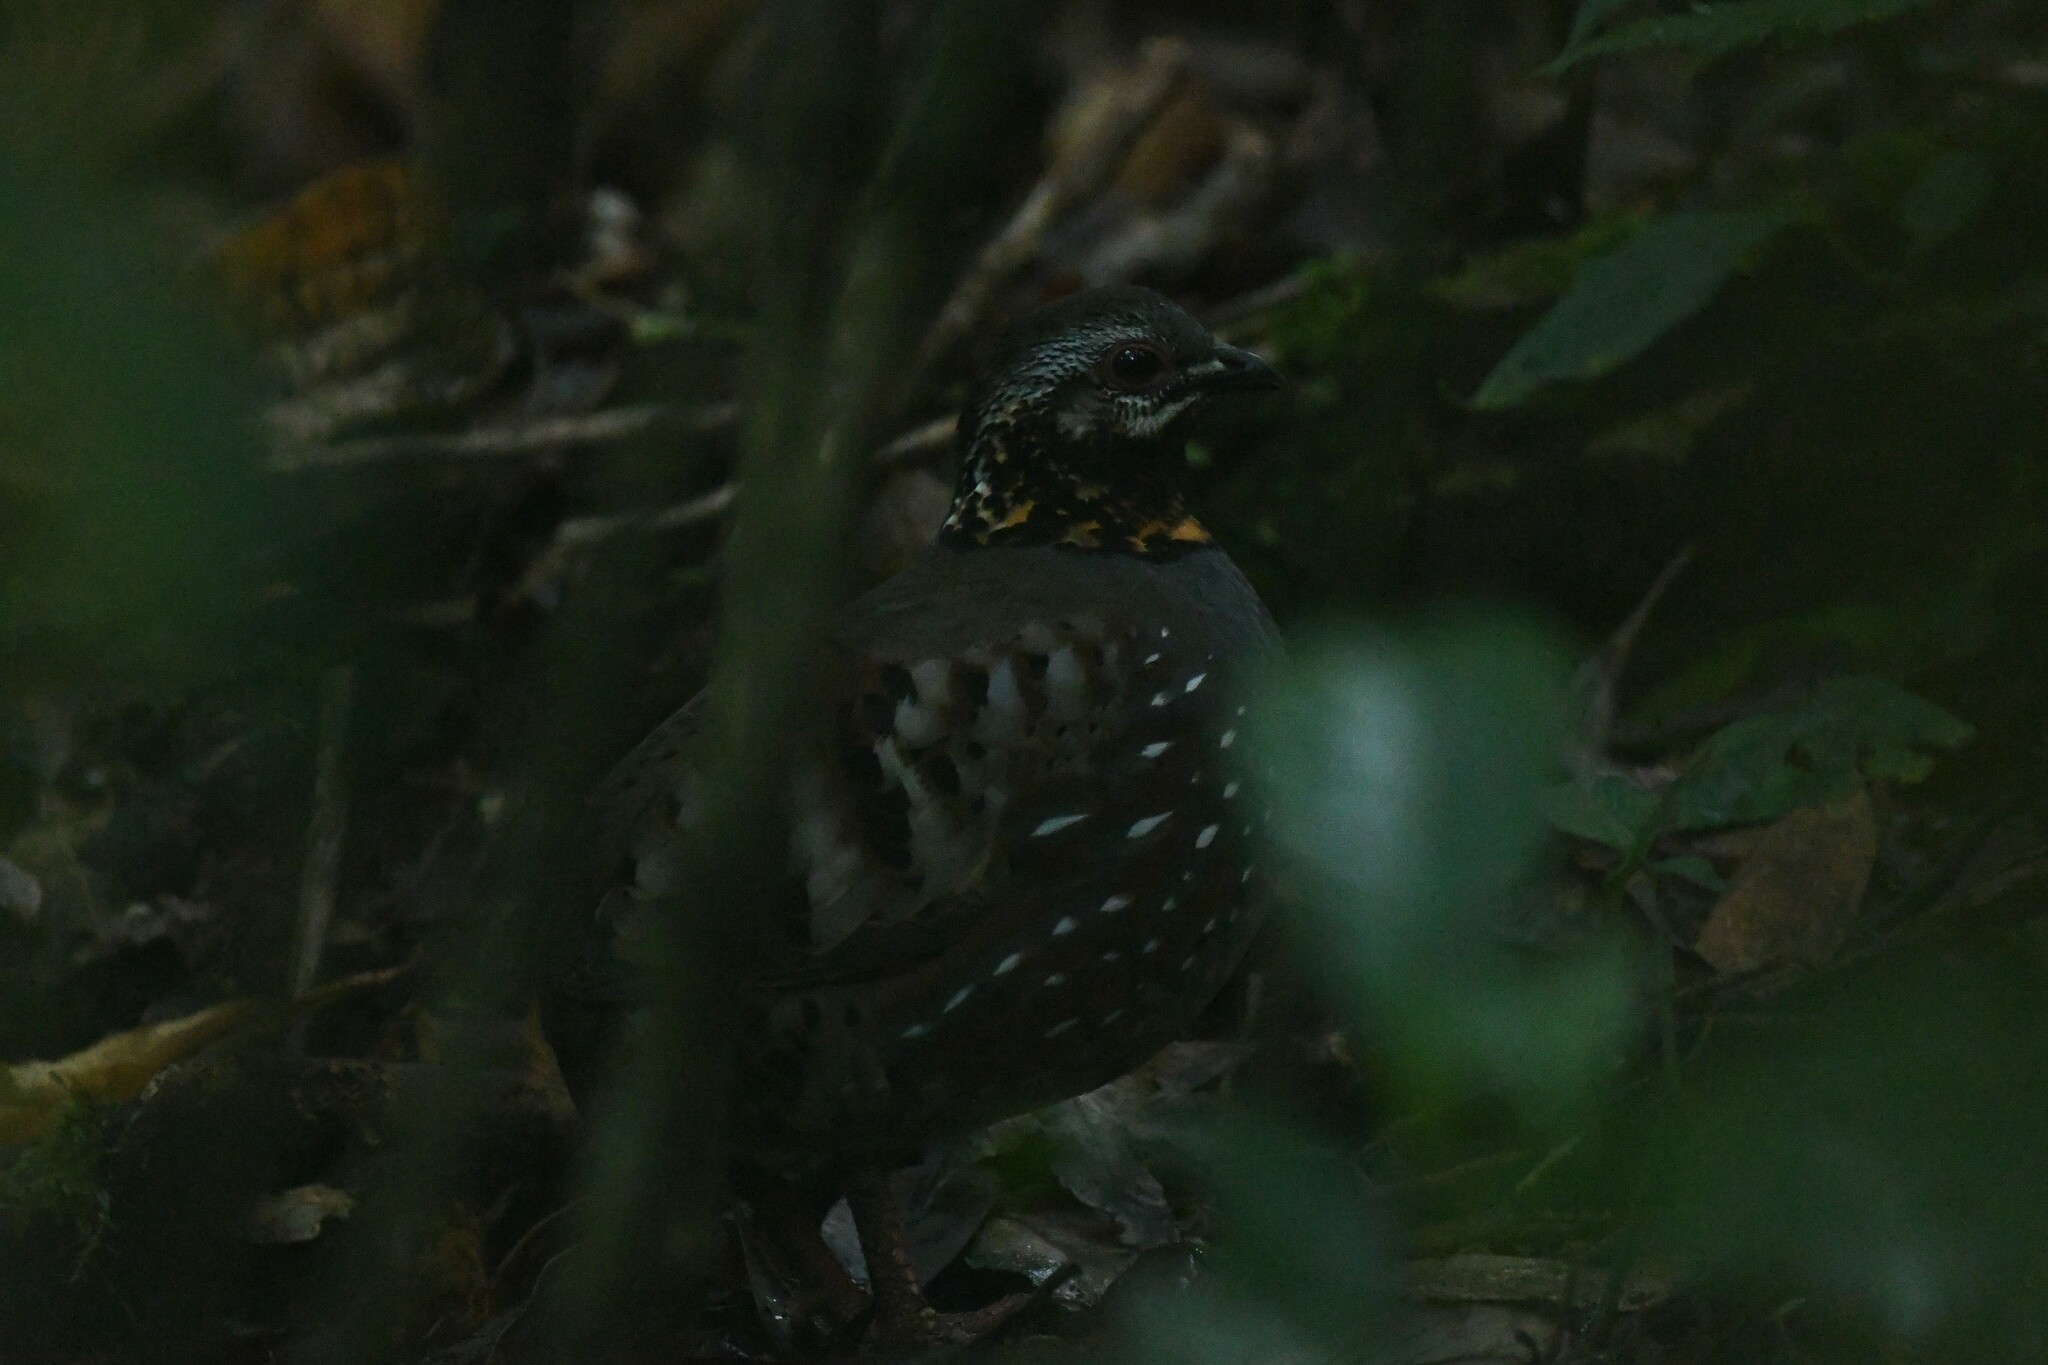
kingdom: Animalia
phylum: Chordata
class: Aves
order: Galliformes
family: Phasianidae
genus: Arborophila
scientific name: Arborophila rufogularis
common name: Rufous-throated partridge
